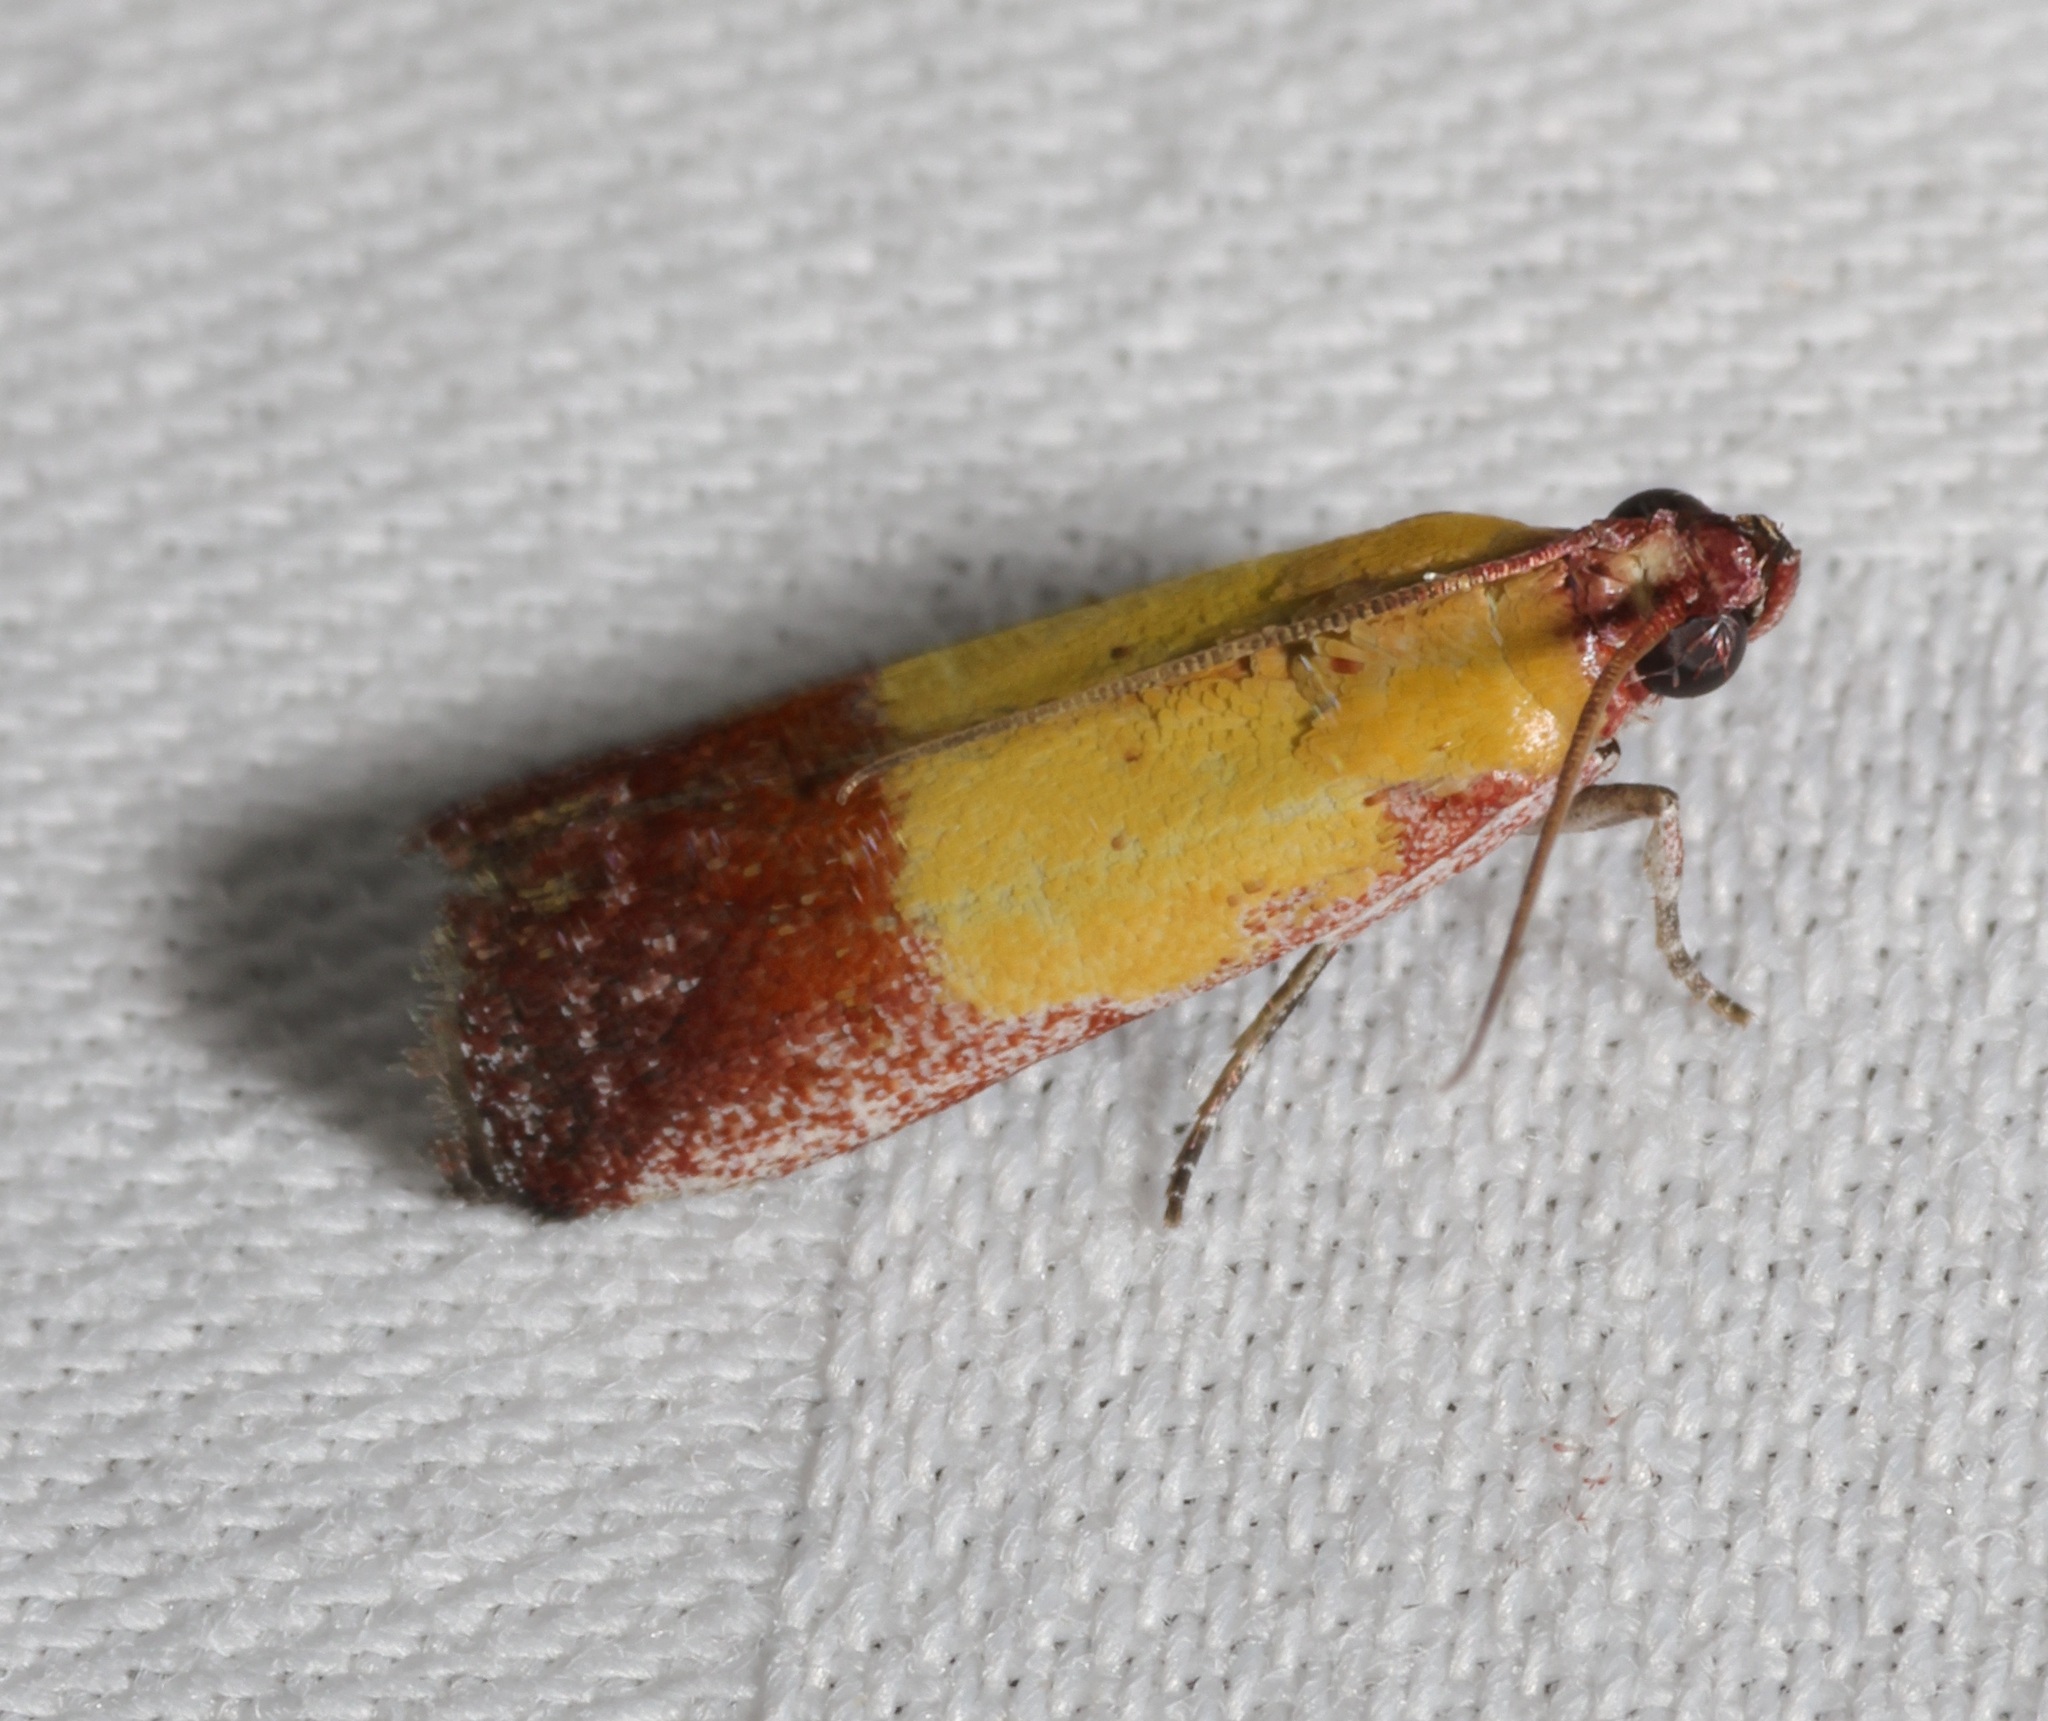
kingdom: Animalia
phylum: Arthropoda
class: Insecta
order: Lepidoptera
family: Pyralidae
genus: Piesmopoda
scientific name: Piesmopoda
